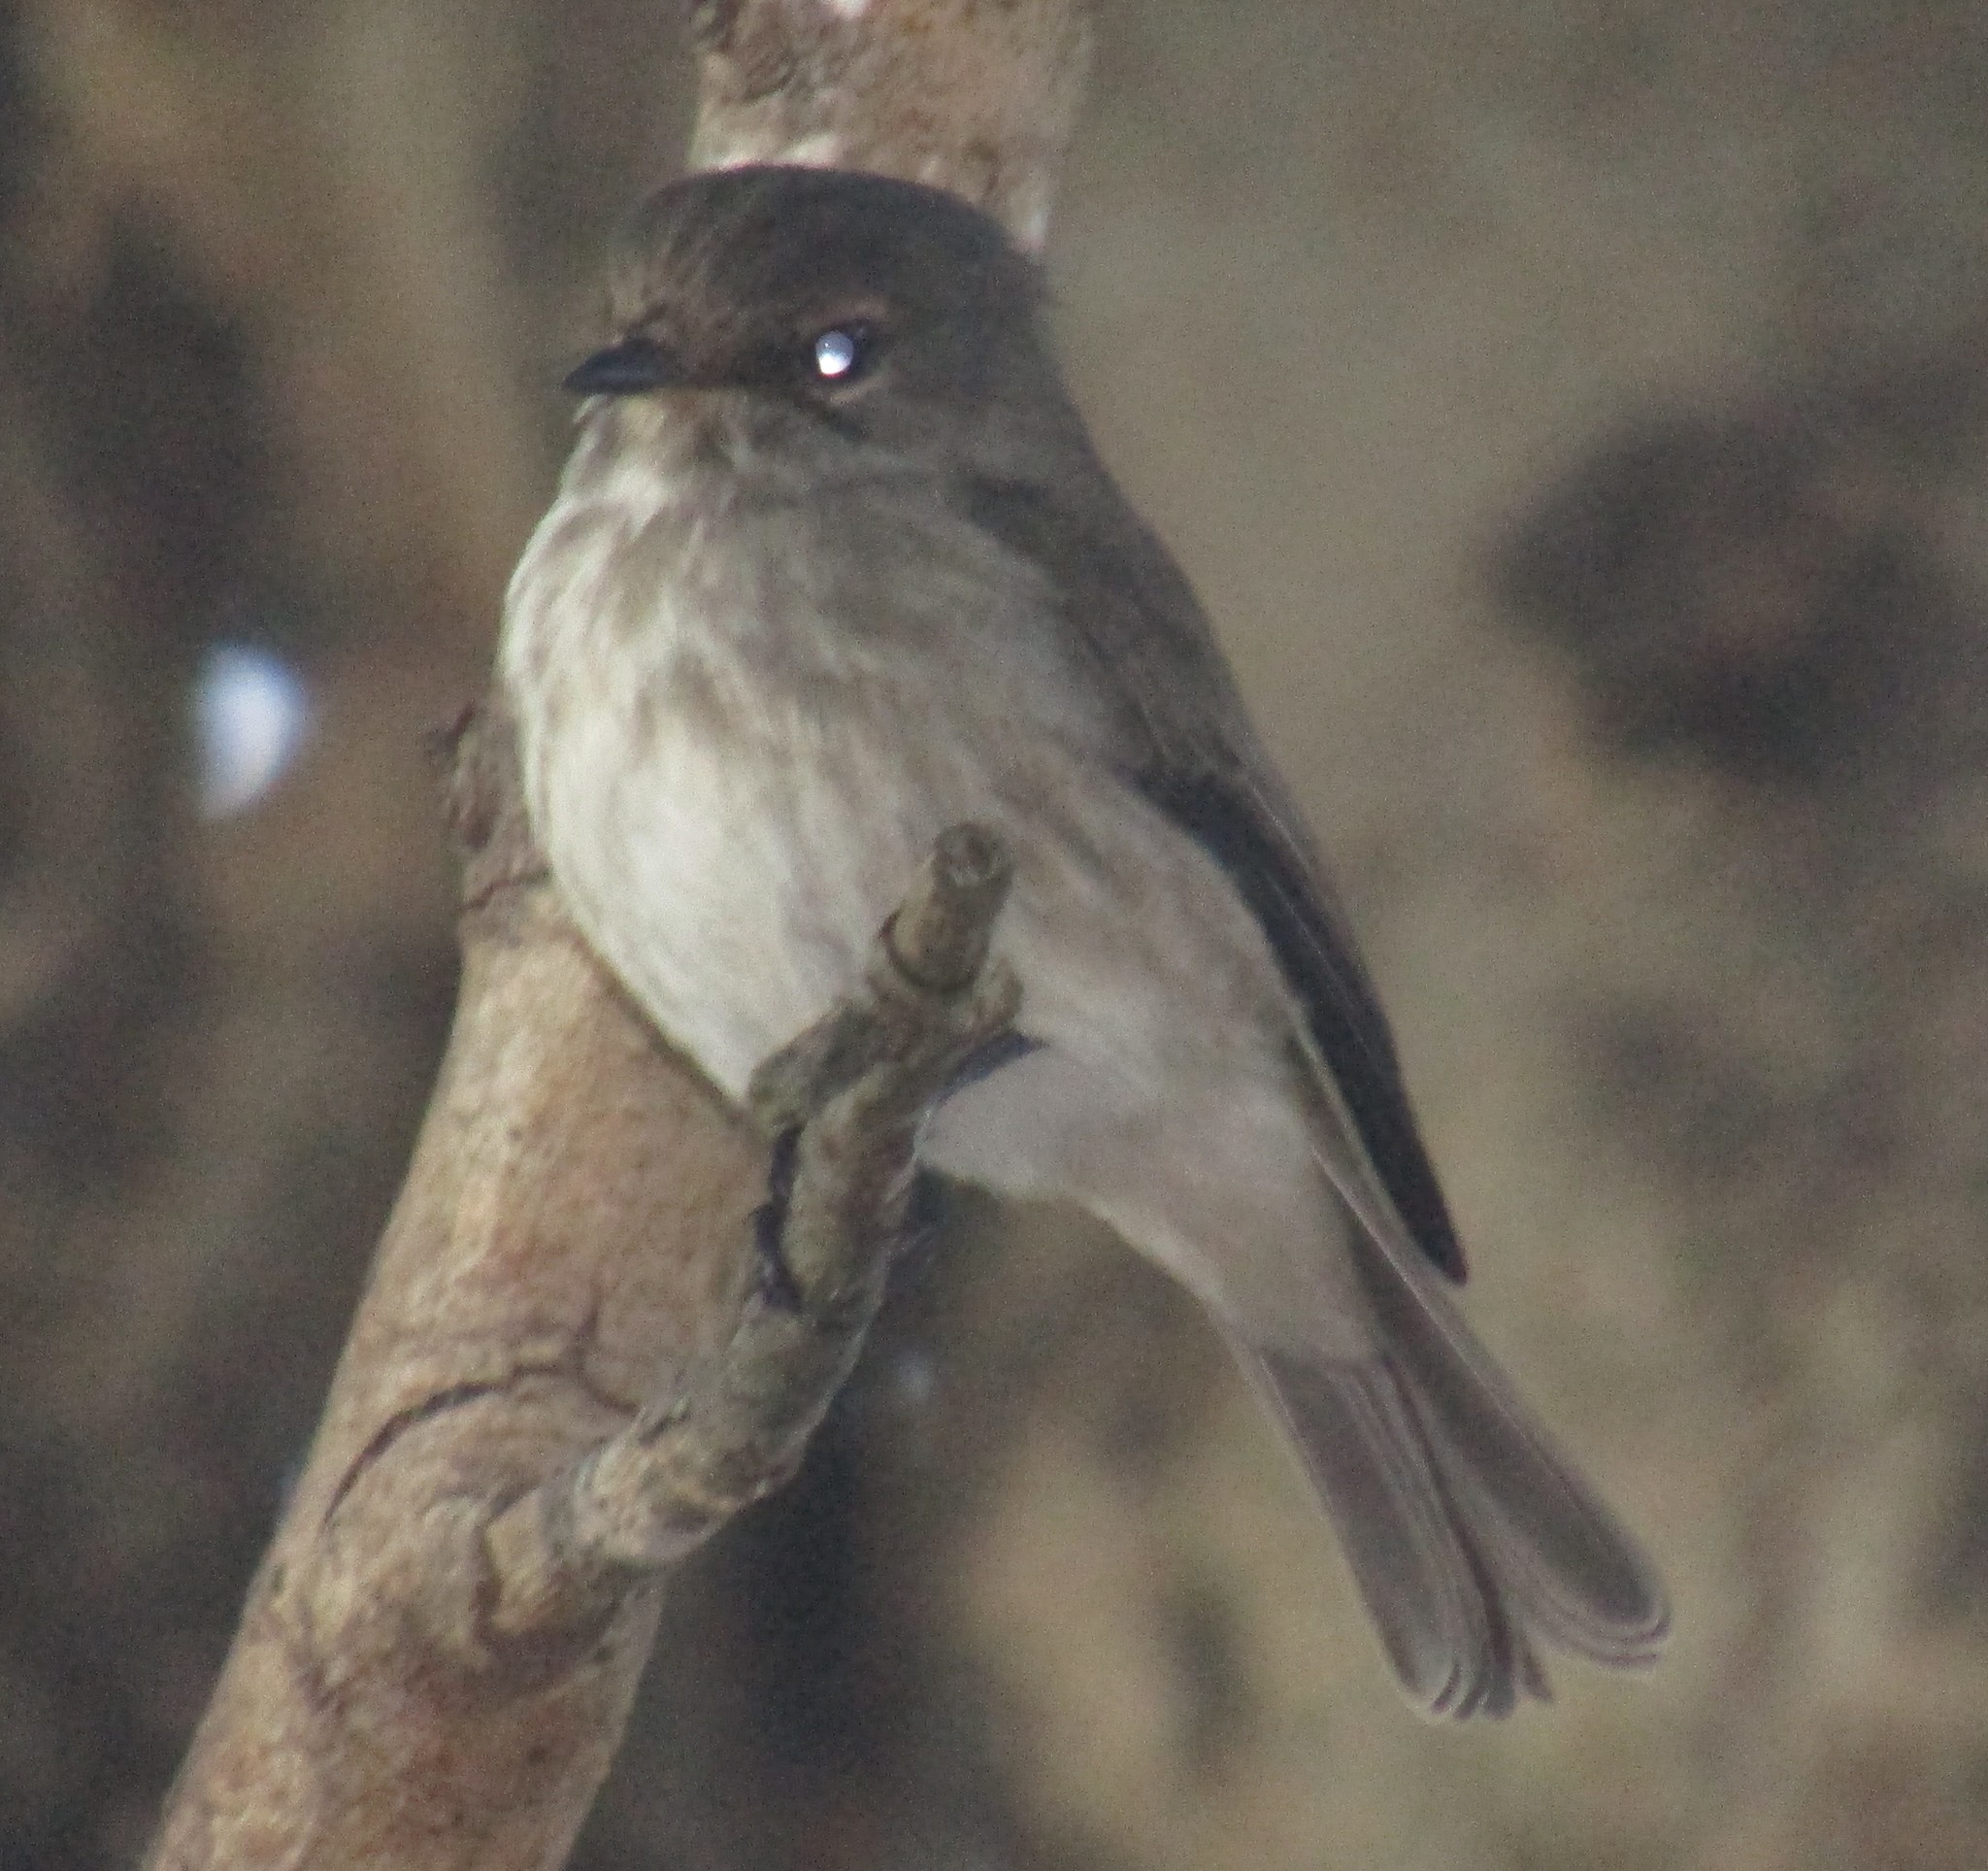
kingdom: Animalia
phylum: Chordata
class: Aves
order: Passeriformes
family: Muscicapidae
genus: Muscicapa
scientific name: Muscicapa striata
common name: Spotted flycatcher
